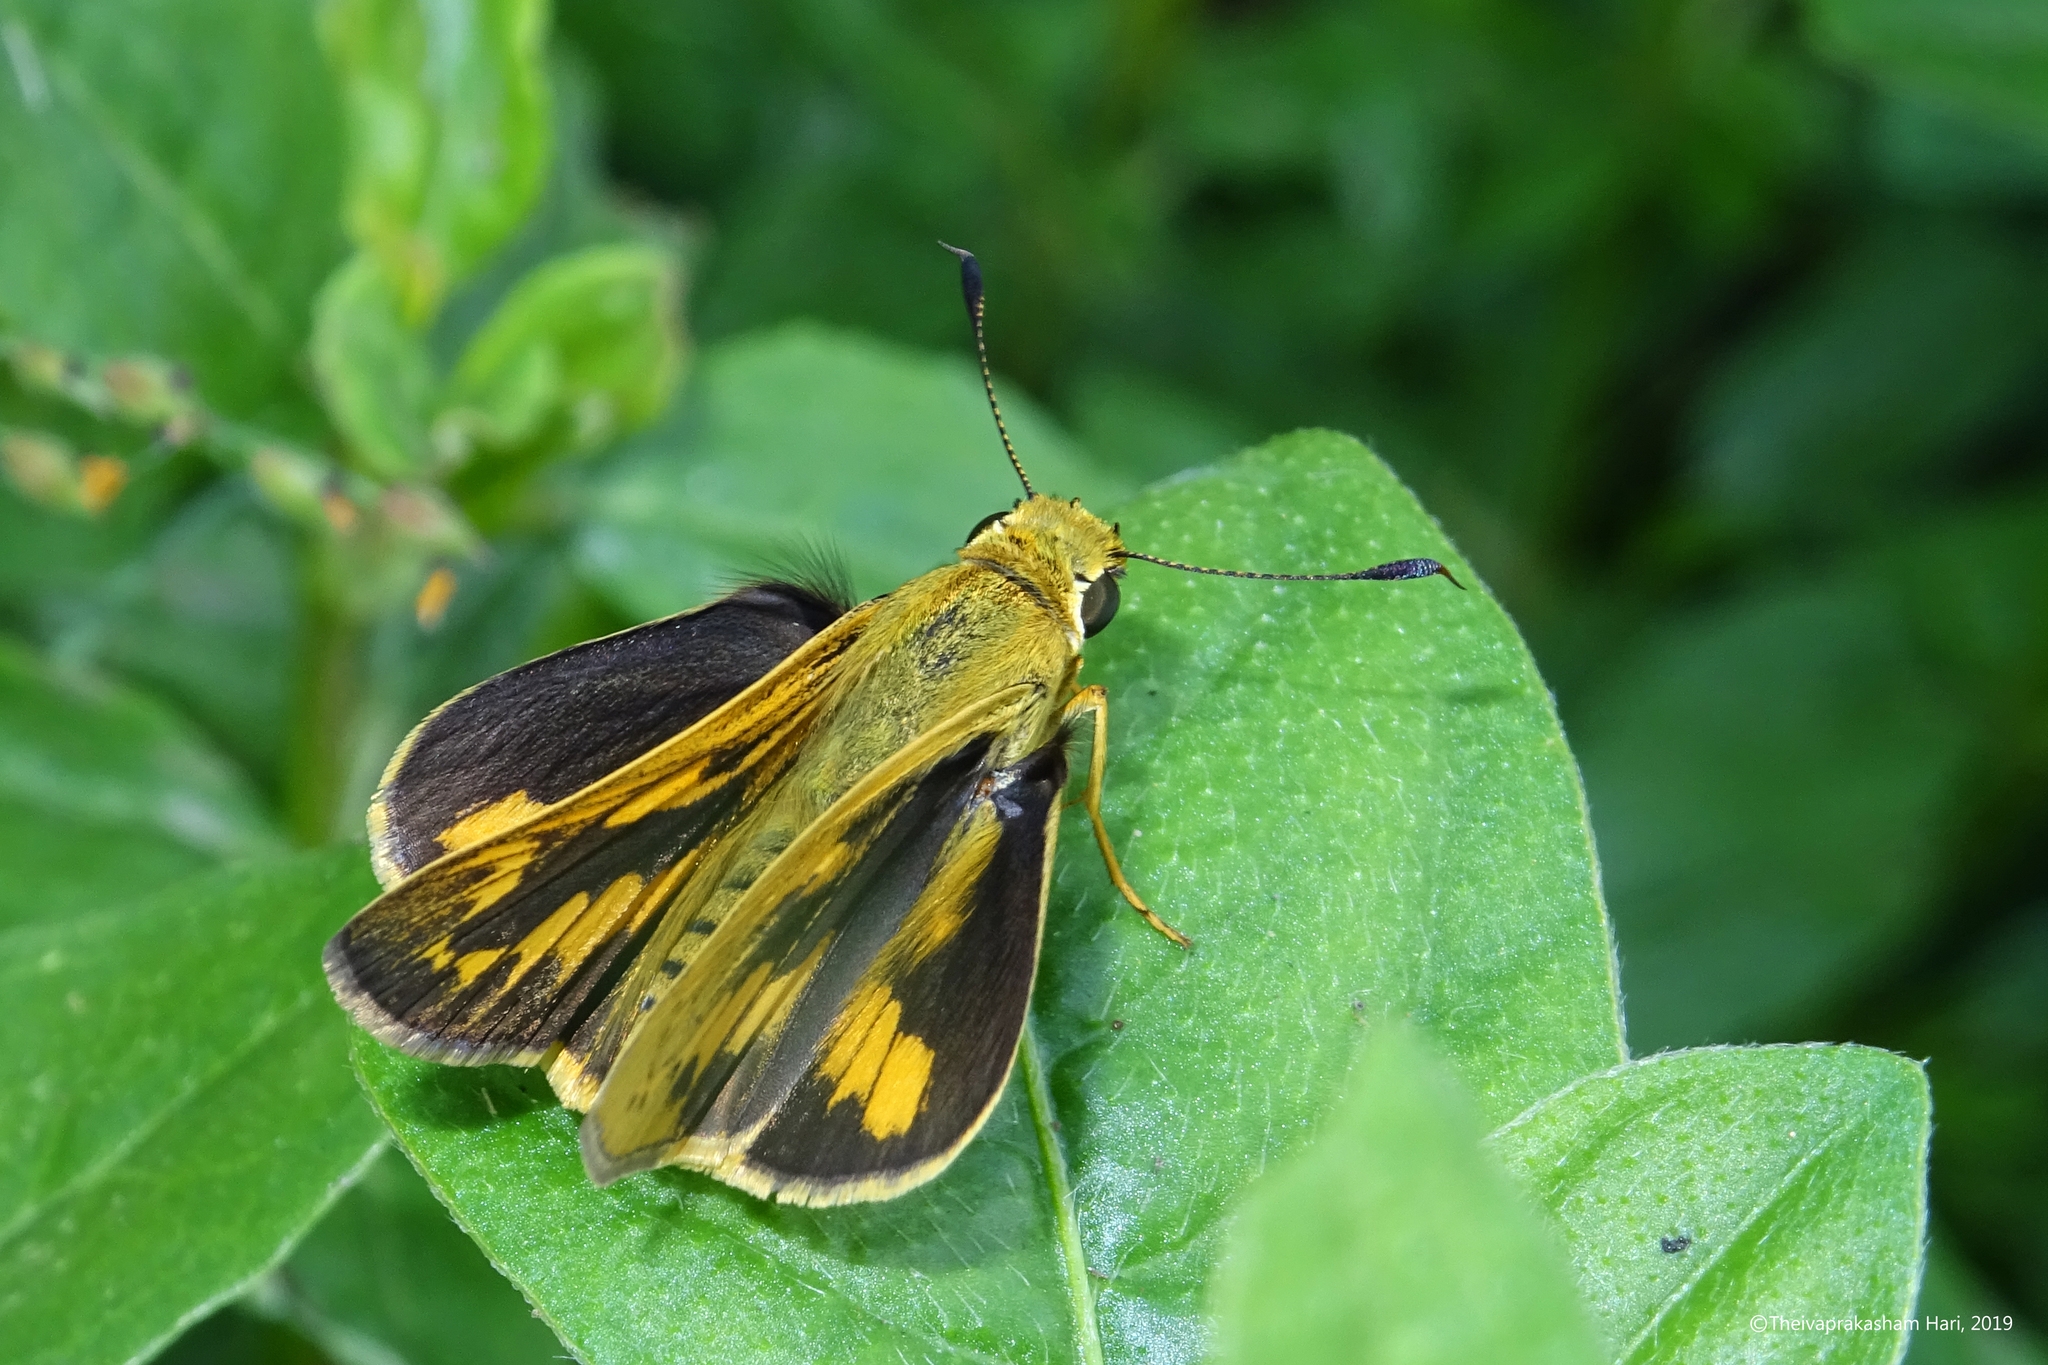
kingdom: Animalia
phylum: Arthropoda
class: Insecta
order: Lepidoptera
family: Hesperiidae
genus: Telicota
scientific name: Telicota colon
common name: Pale palm dart
